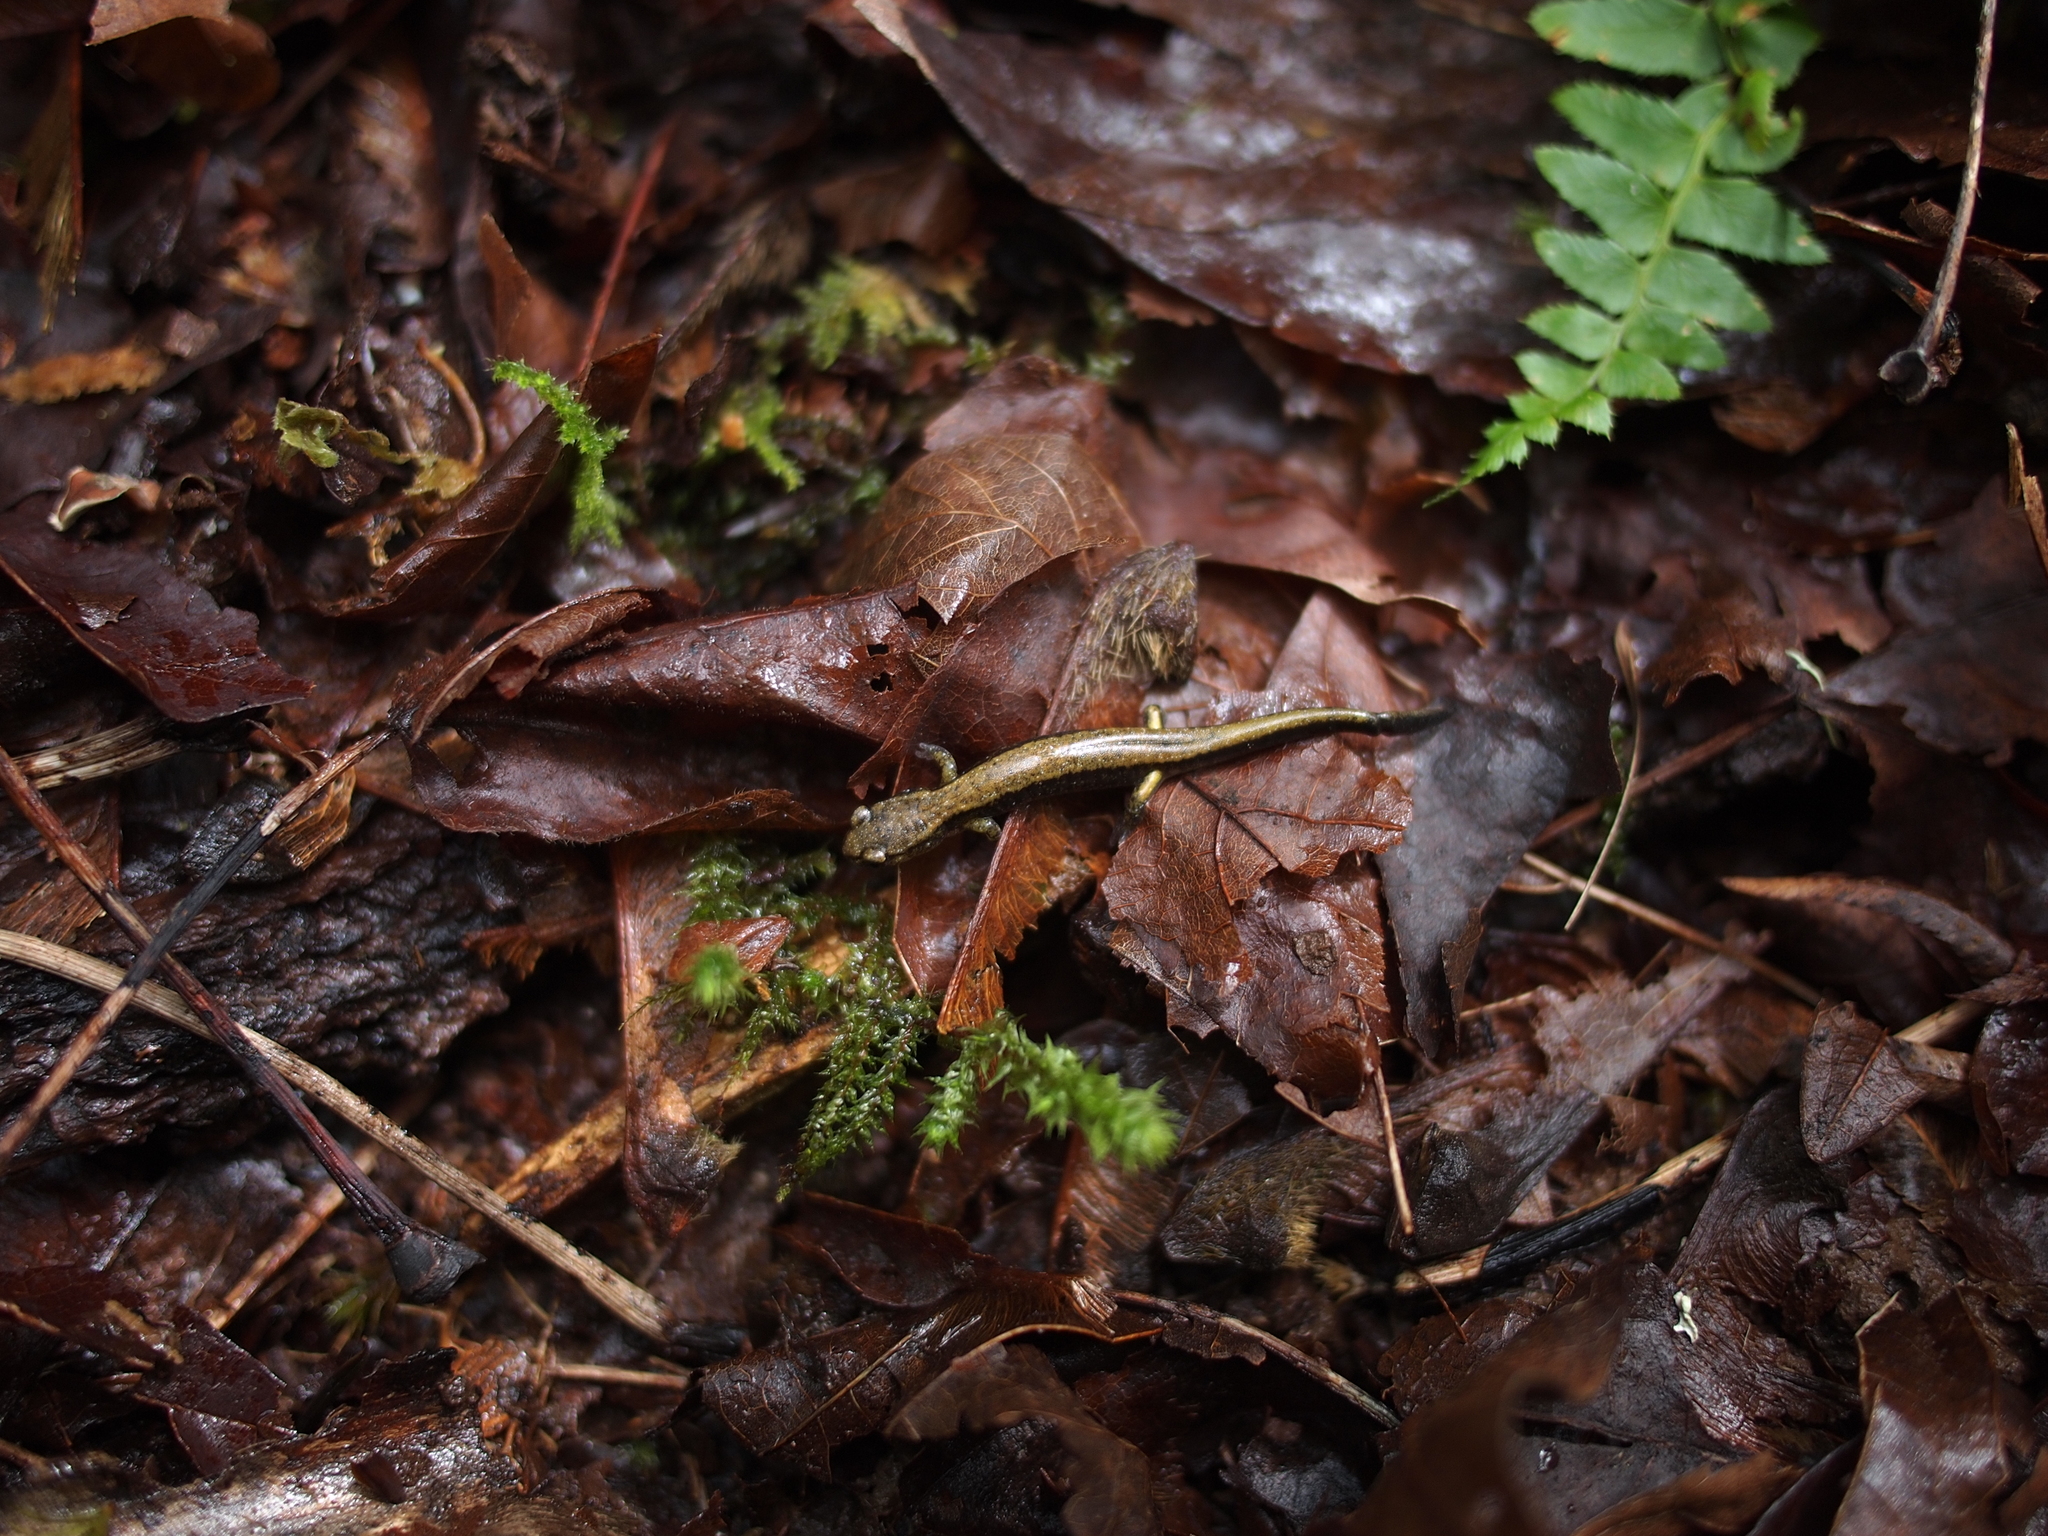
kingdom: Animalia
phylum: Chordata
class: Amphibia
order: Caudata
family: Plethodontidae
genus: Plethodon
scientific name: Plethodon vehiculum
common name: Western red-backed salamander
